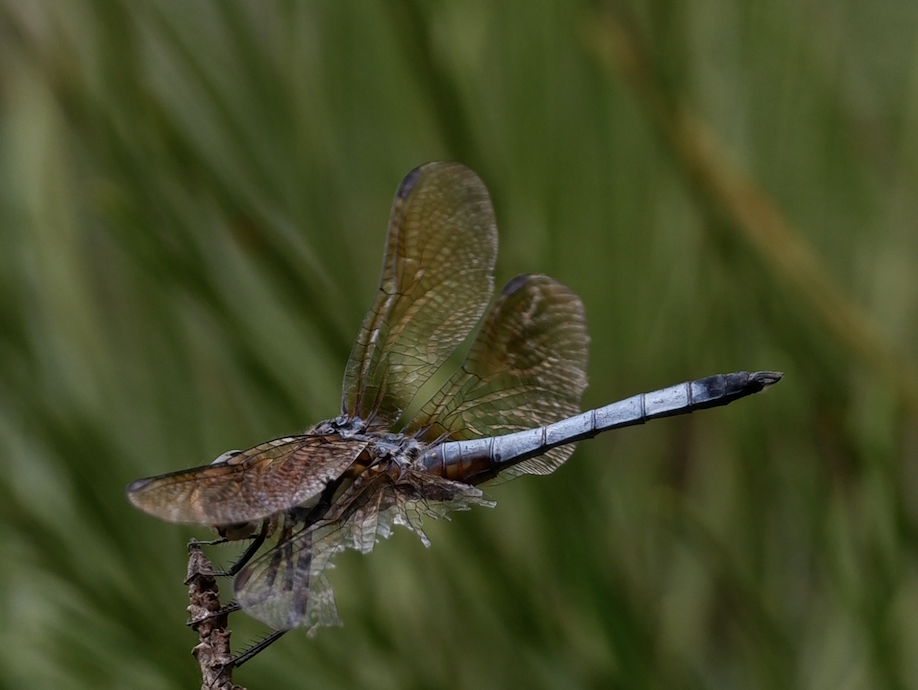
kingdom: Animalia
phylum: Arthropoda
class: Insecta
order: Odonata
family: Libellulidae
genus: Pachydiplax
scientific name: Pachydiplax longipennis
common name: Blue dasher
